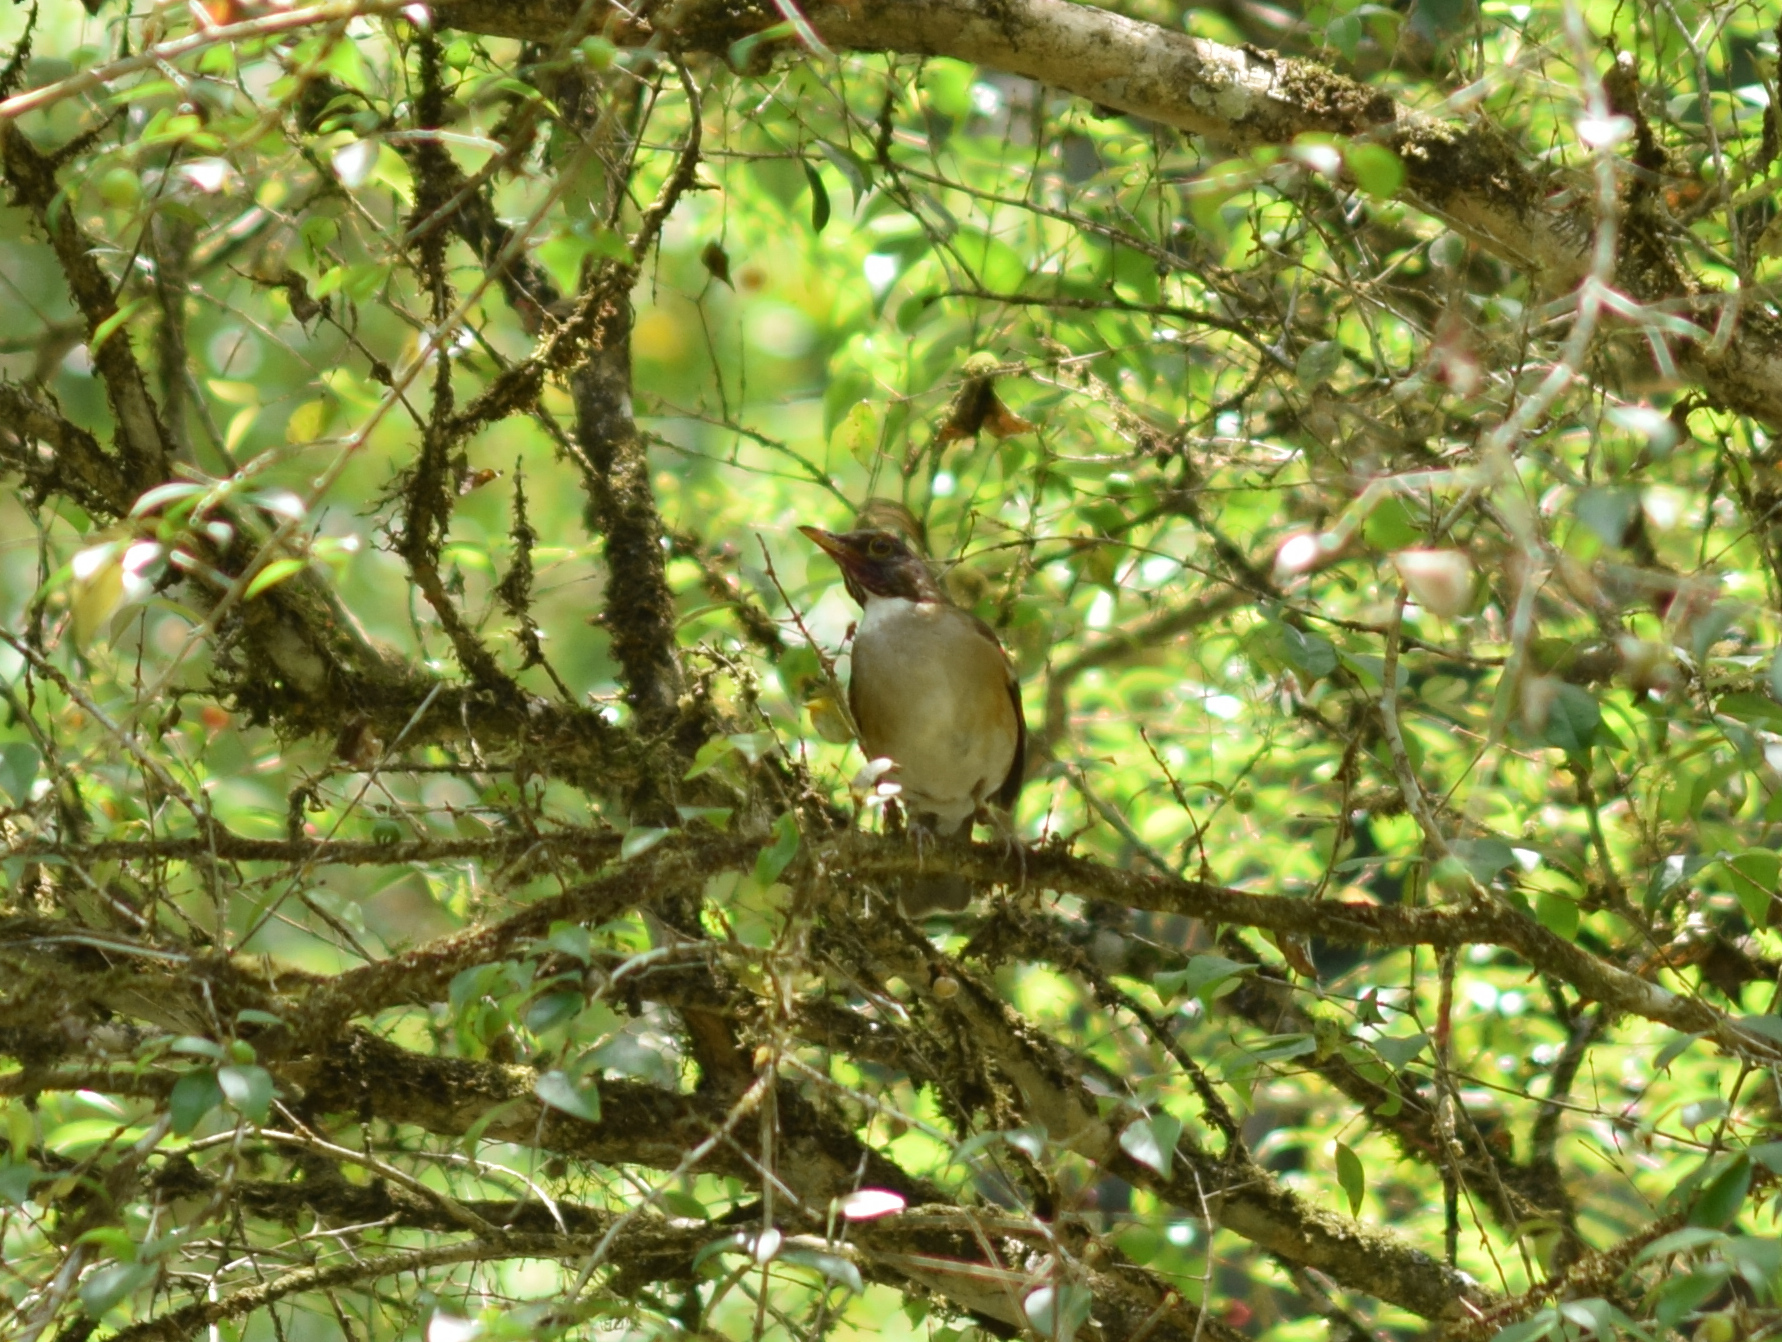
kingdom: Animalia
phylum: Chordata
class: Aves
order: Passeriformes
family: Turdidae
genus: Turdus
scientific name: Turdus albicollis
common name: White-necked thrush
